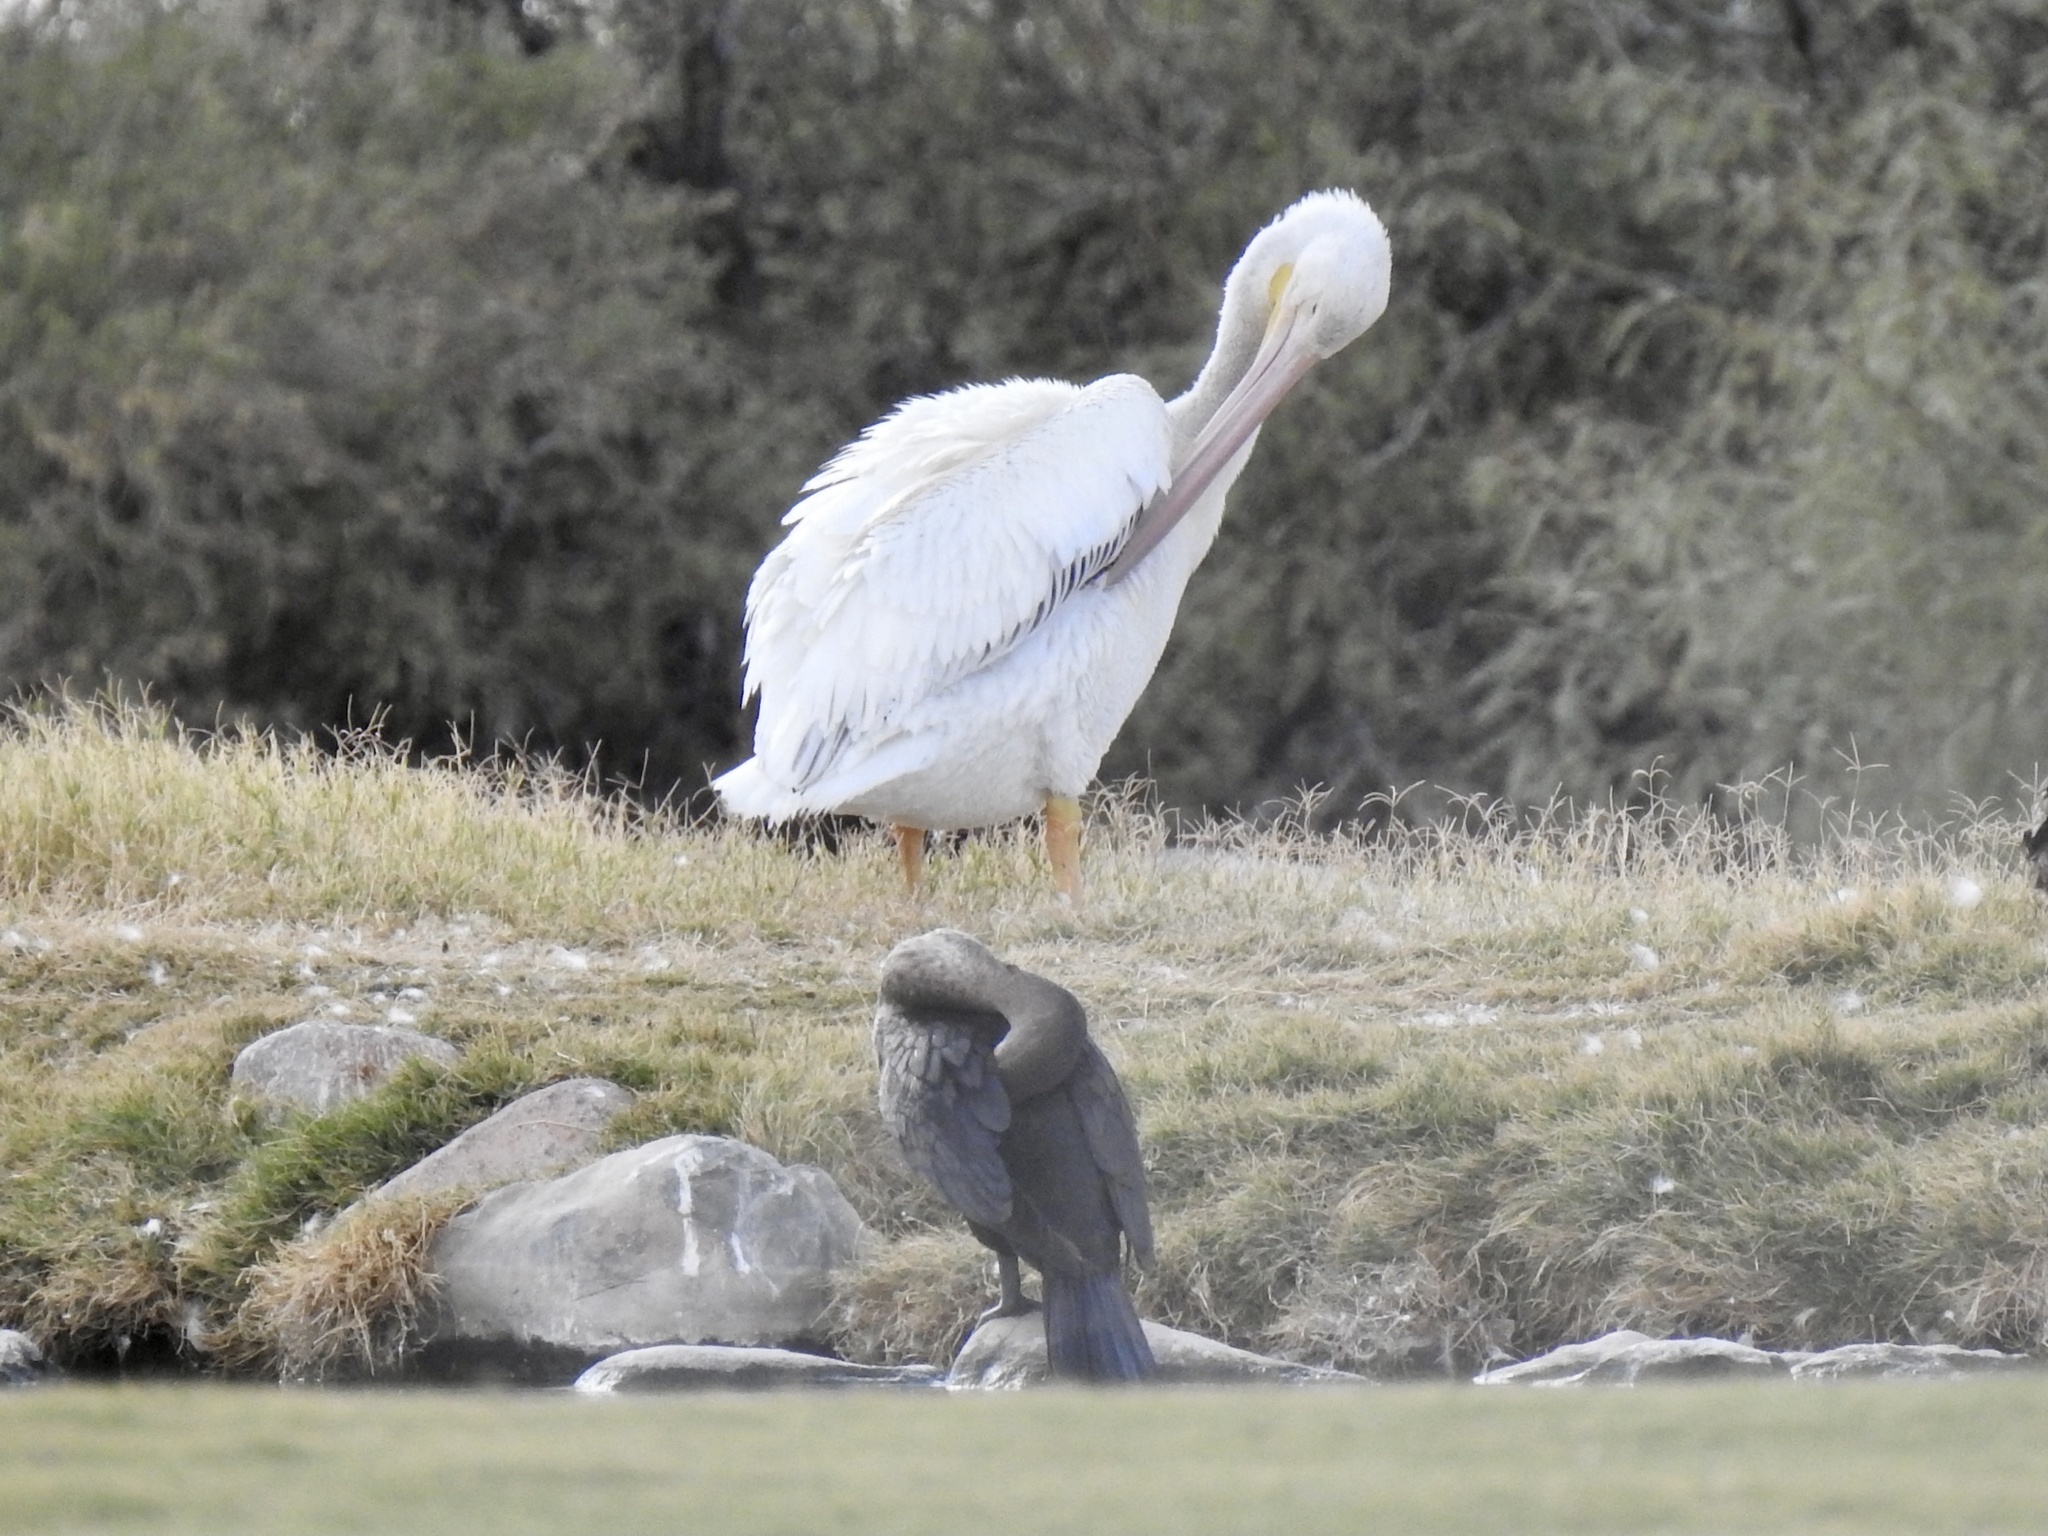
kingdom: Animalia
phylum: Chordata
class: Aves
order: Suliformes
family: Phalacrocoracidae
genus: Phalacrocorax
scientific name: Phalacrocorax auritus
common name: Double-crested cormorant
